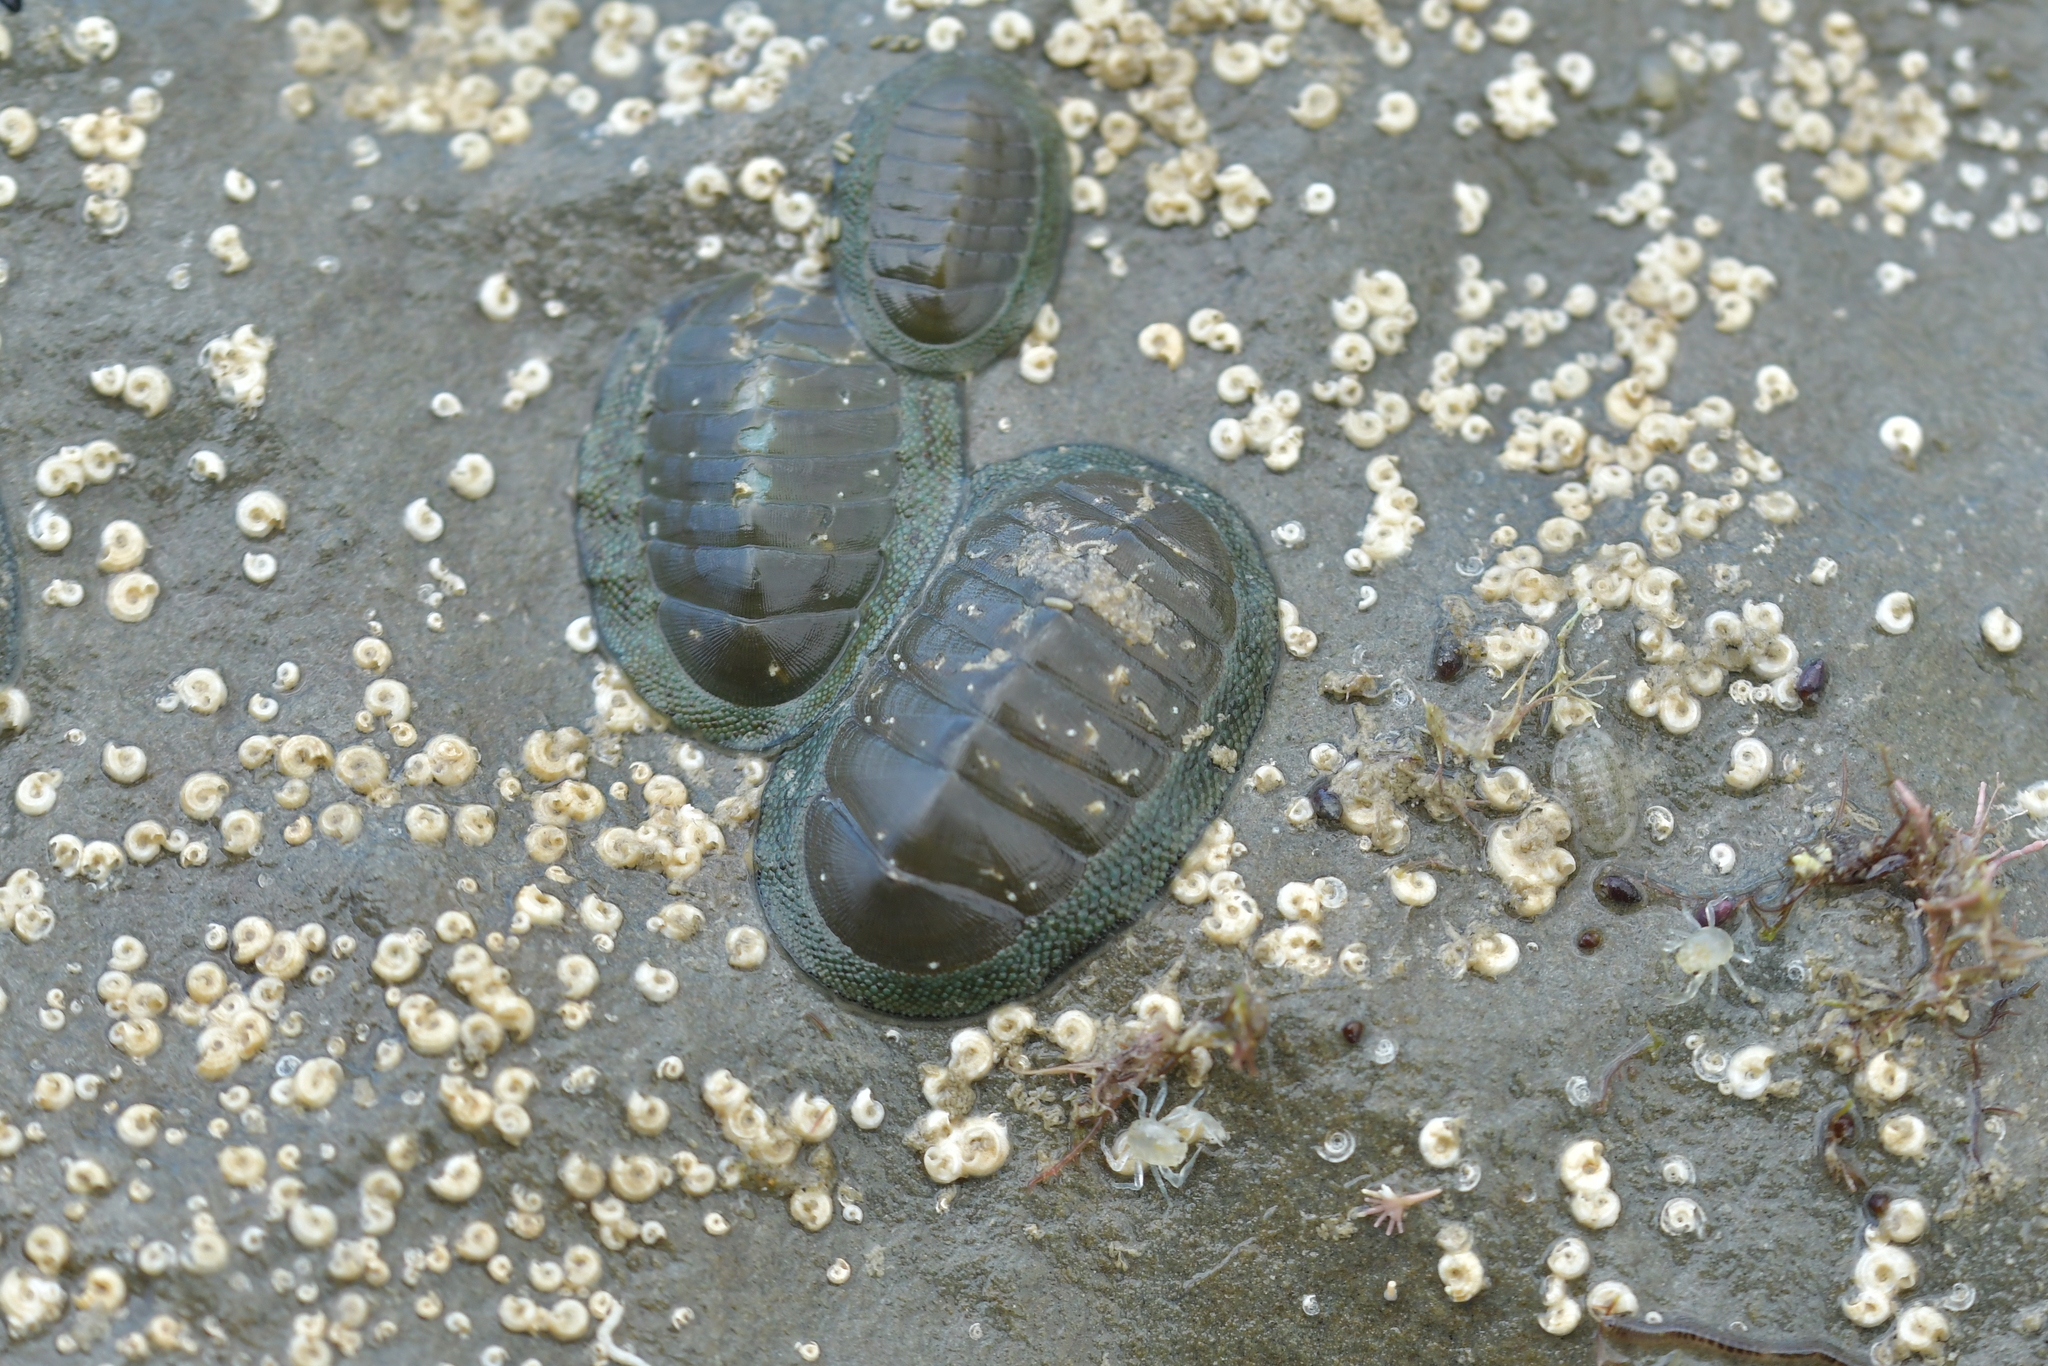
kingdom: Animalia
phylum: Mollusca
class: Polyplacophora
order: Chitonida
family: Chitonidae
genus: Chiton
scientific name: Chiton glaucus
